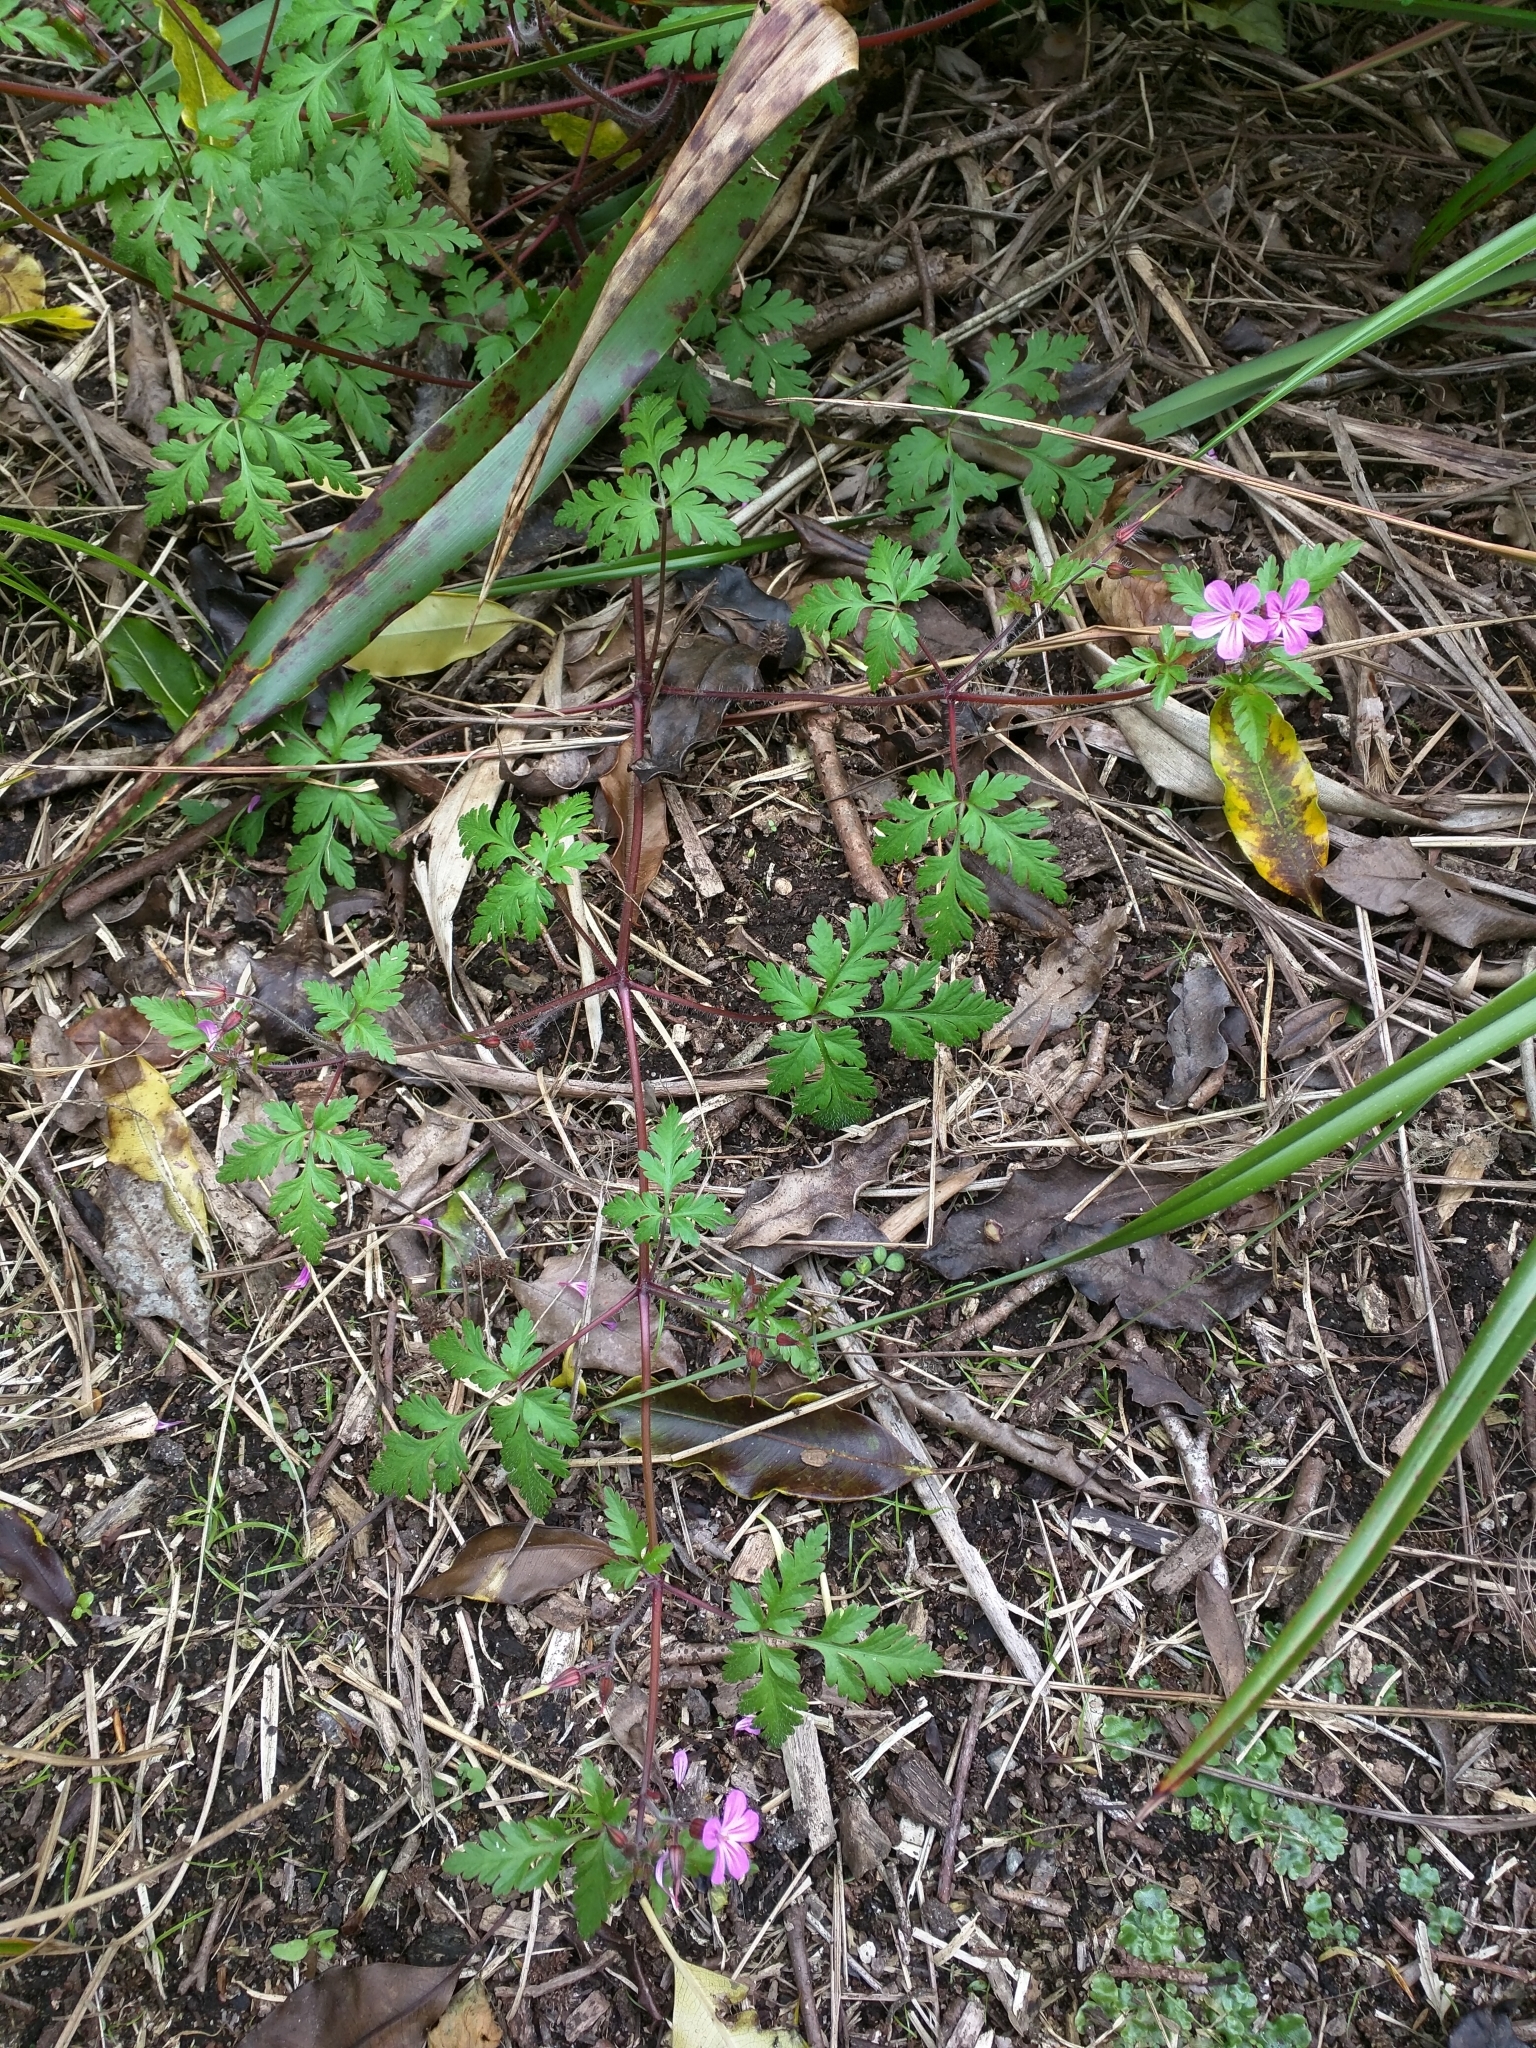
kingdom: Plantae
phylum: Tracheophyta
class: Magnoliopsida
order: Geraniales
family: Geraniaceae
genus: Geranium
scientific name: Geranium robertianum
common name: Herb-robert
